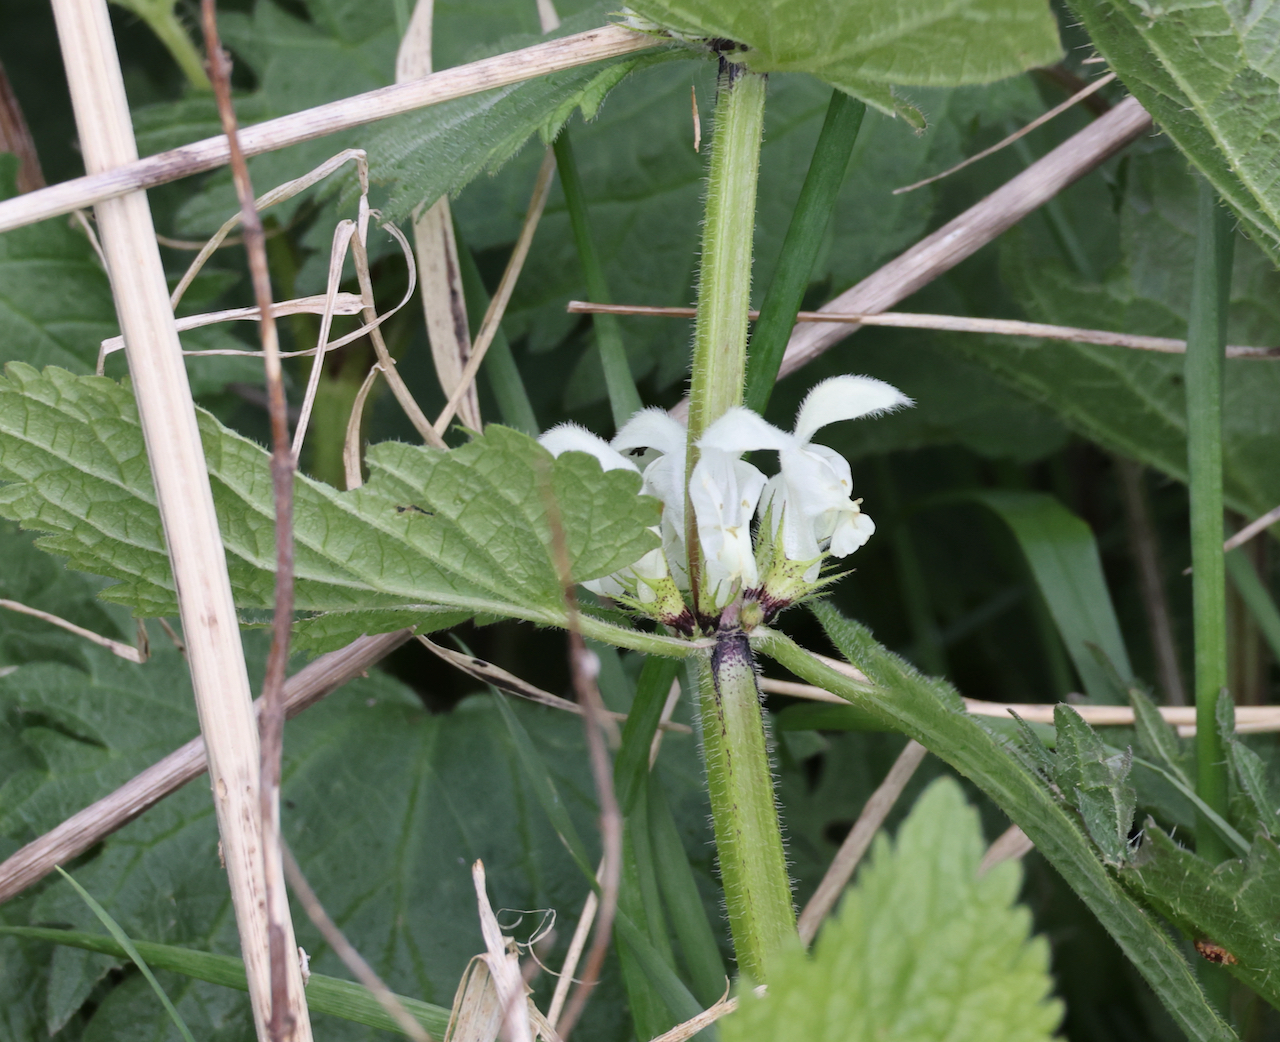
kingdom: Plantae
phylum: Tracheophyta
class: Magnoliopsida
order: Lamiales
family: Lamiaceae
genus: Lamium
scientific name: Lamium album
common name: White dead-nettle
